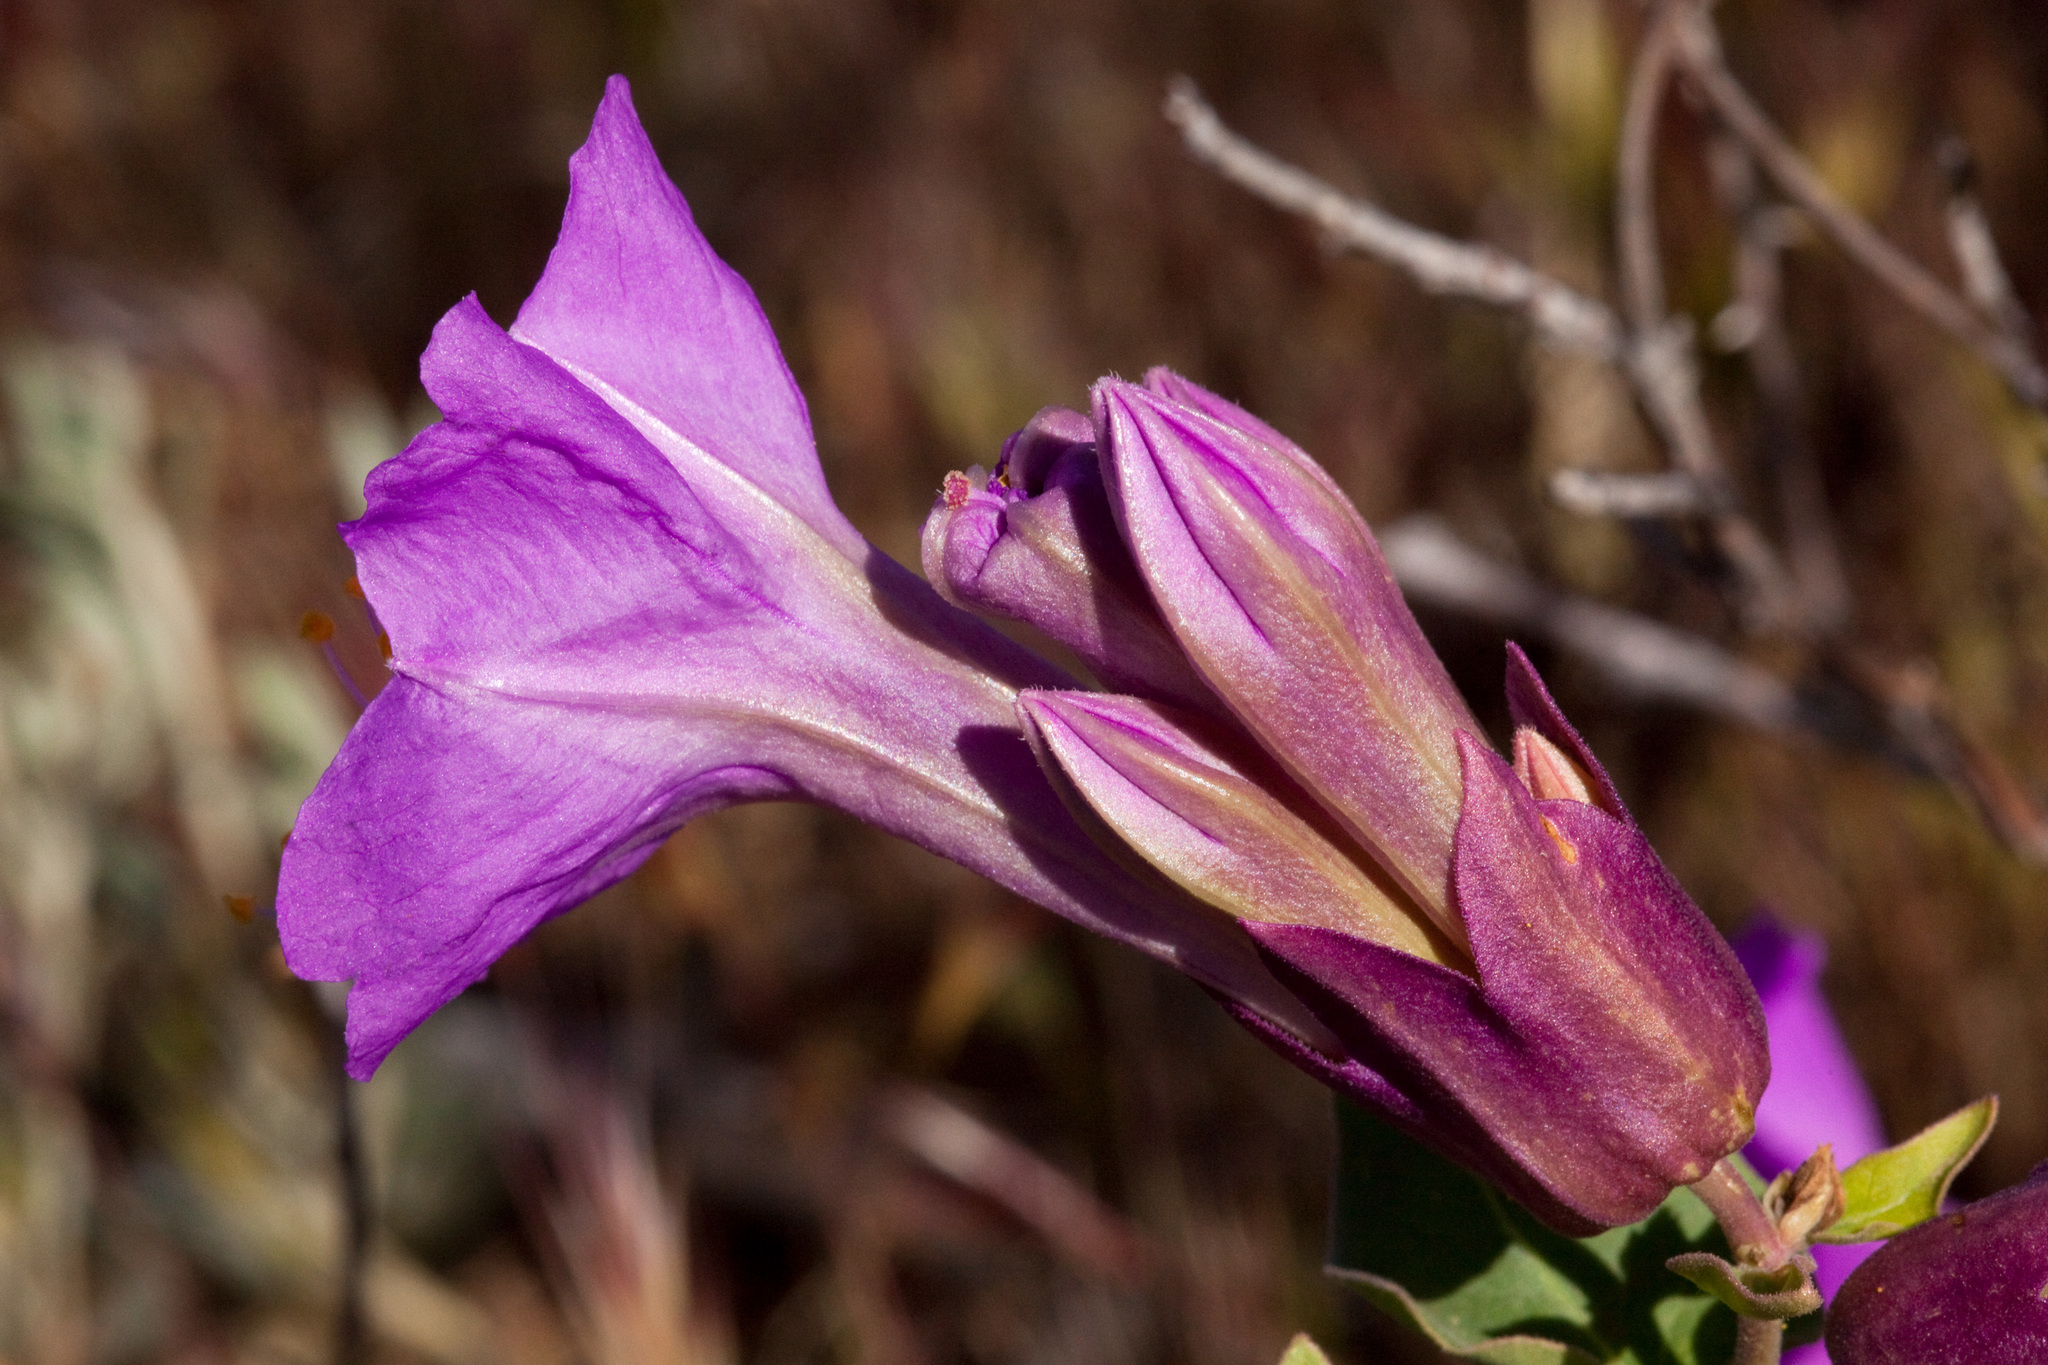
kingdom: Plantae
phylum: Tracheophyta
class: Magnoliopsida
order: Caryophyllales
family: Nyctaginaceae
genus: Mirabilis
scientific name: Mirabilis multiflora
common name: Froebel's four-o'clock
